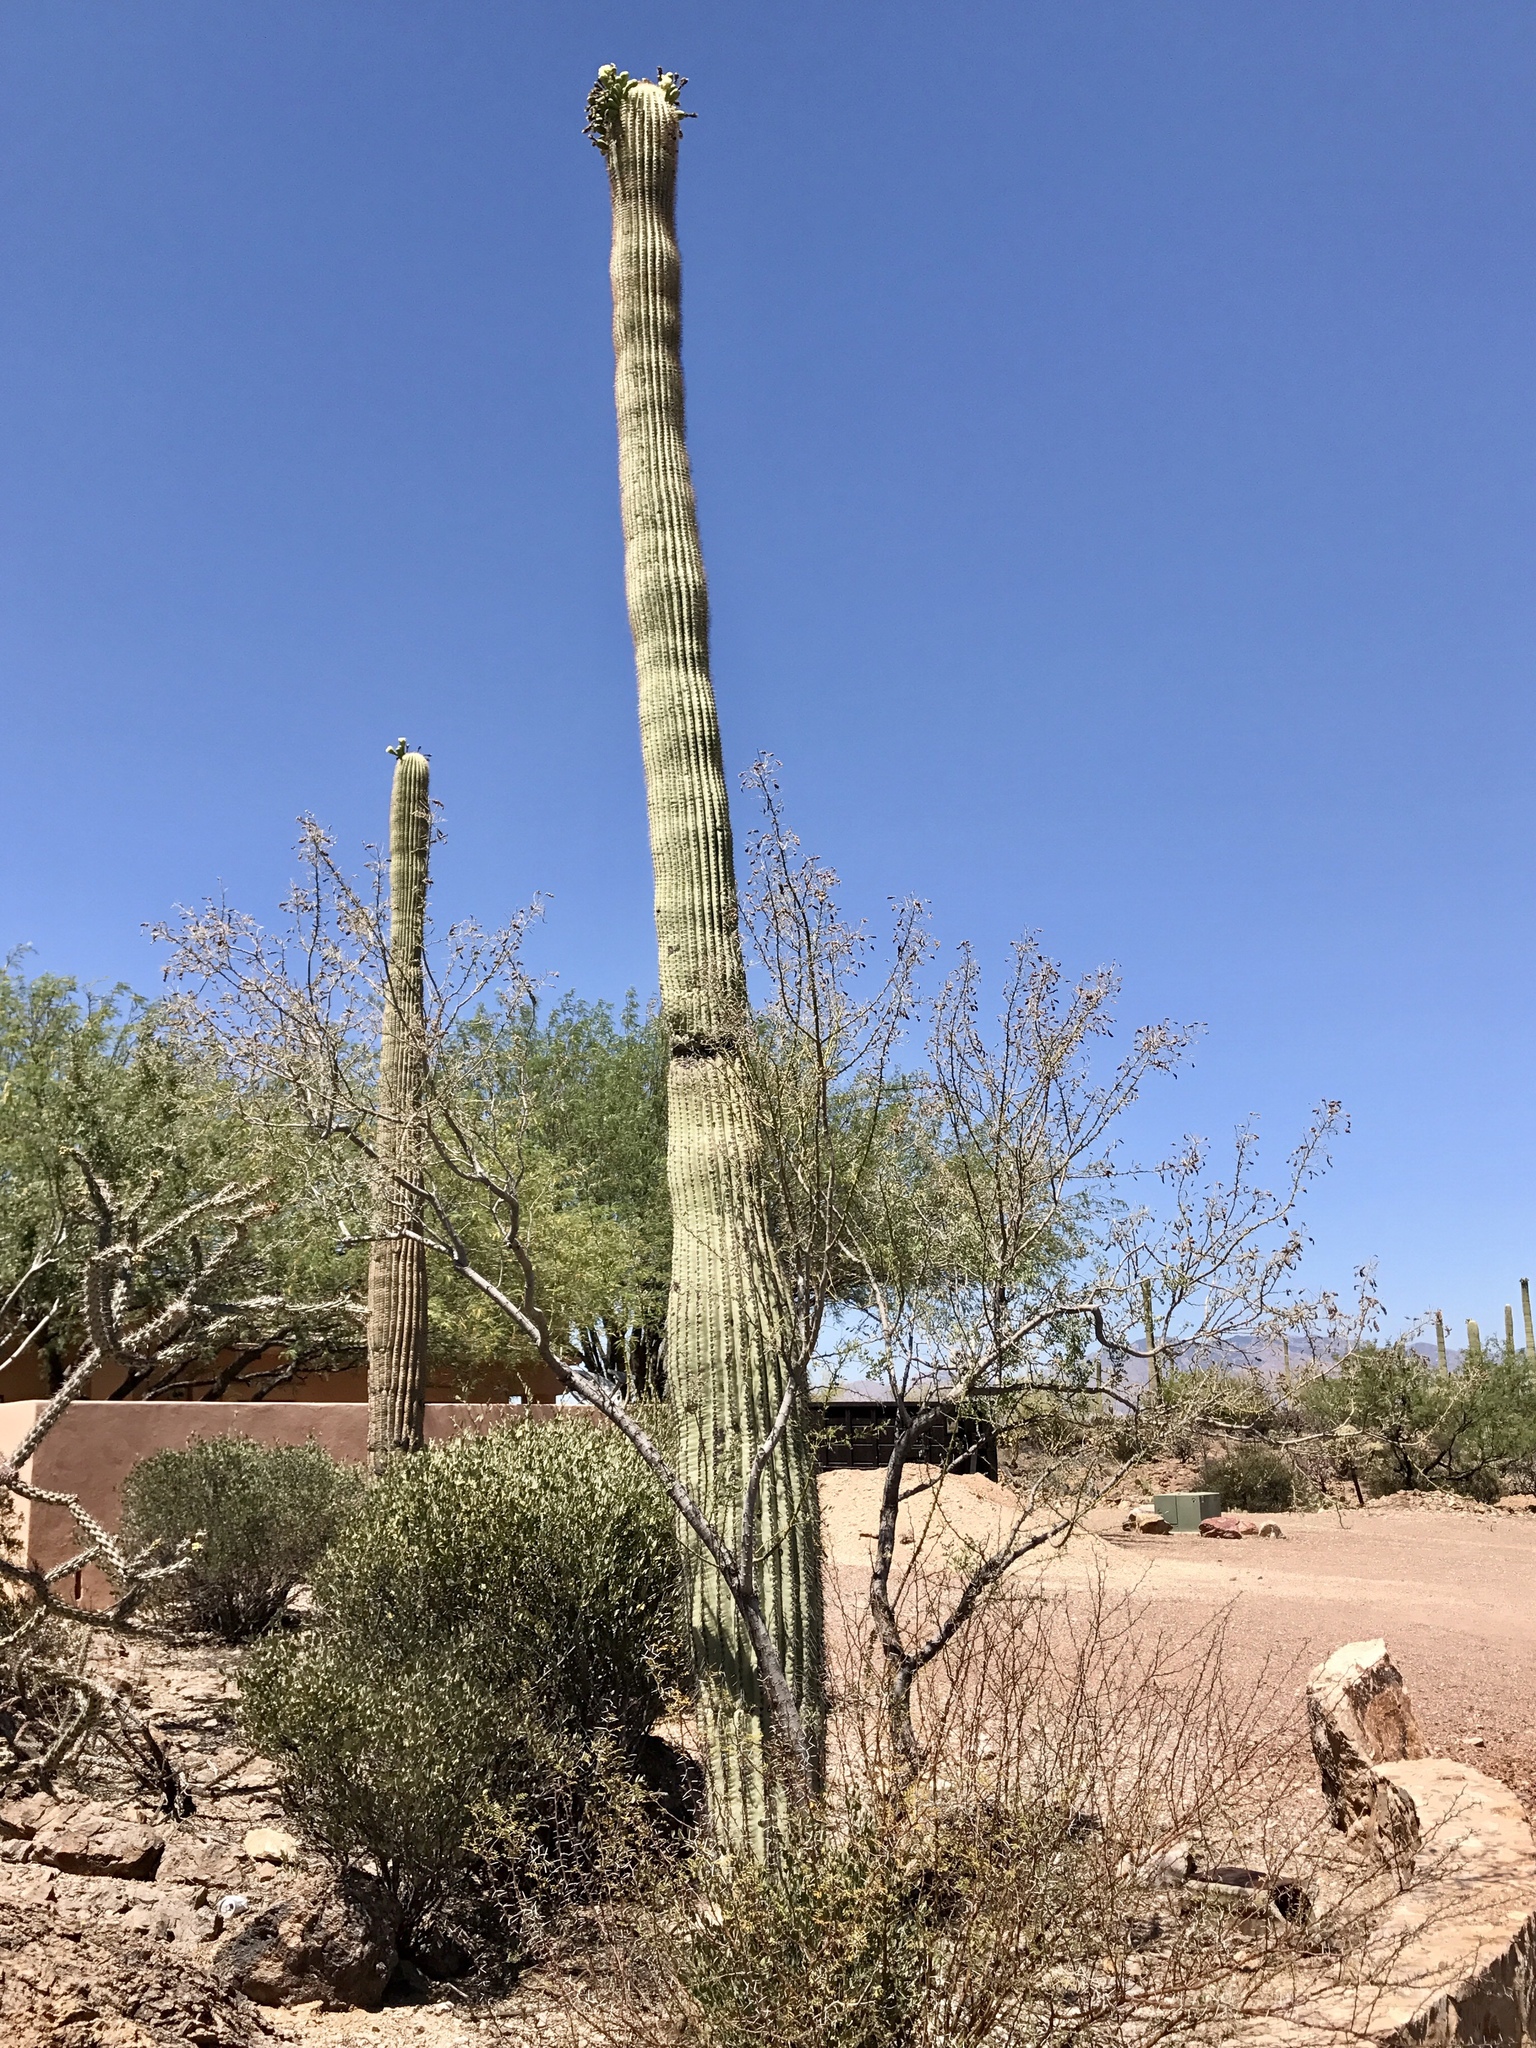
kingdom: Plantae
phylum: Tracheophyta
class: Magnoliopsida
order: Fabales
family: Fabaceae
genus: Olneya
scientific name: Olneya tesota
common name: Desert ironwood
